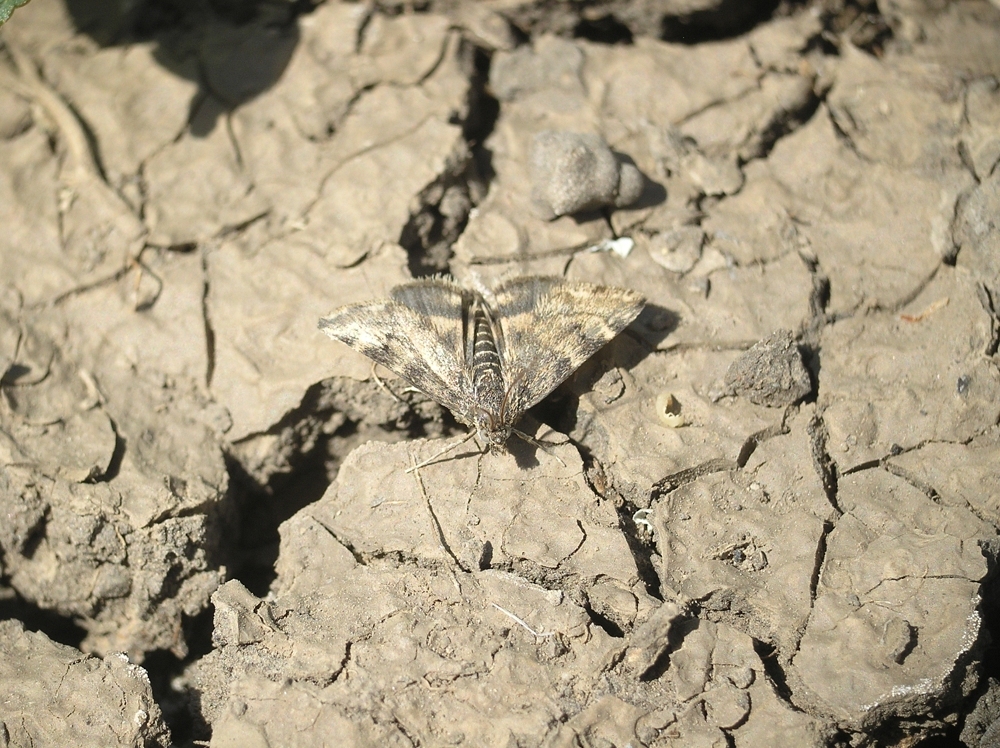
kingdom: Animalia
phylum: Arthropoda
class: Insecta
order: Lepidoptera
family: Crambidae
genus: Noctuelia
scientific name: Noctuelia Aporodes floralis
